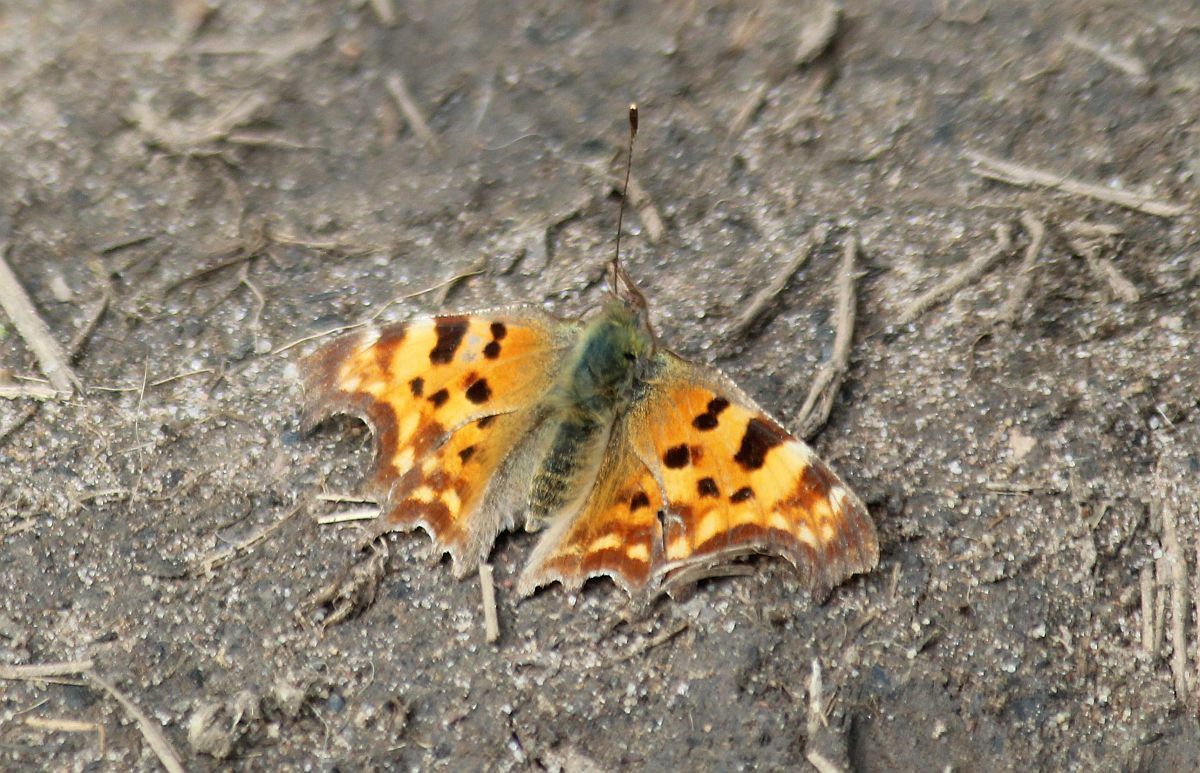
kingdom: Animalia
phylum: Arthropoda
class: Insecta
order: Lepidoptera
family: Nymphalidae
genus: Polygonia
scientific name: Polygonia c-album
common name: Comma
